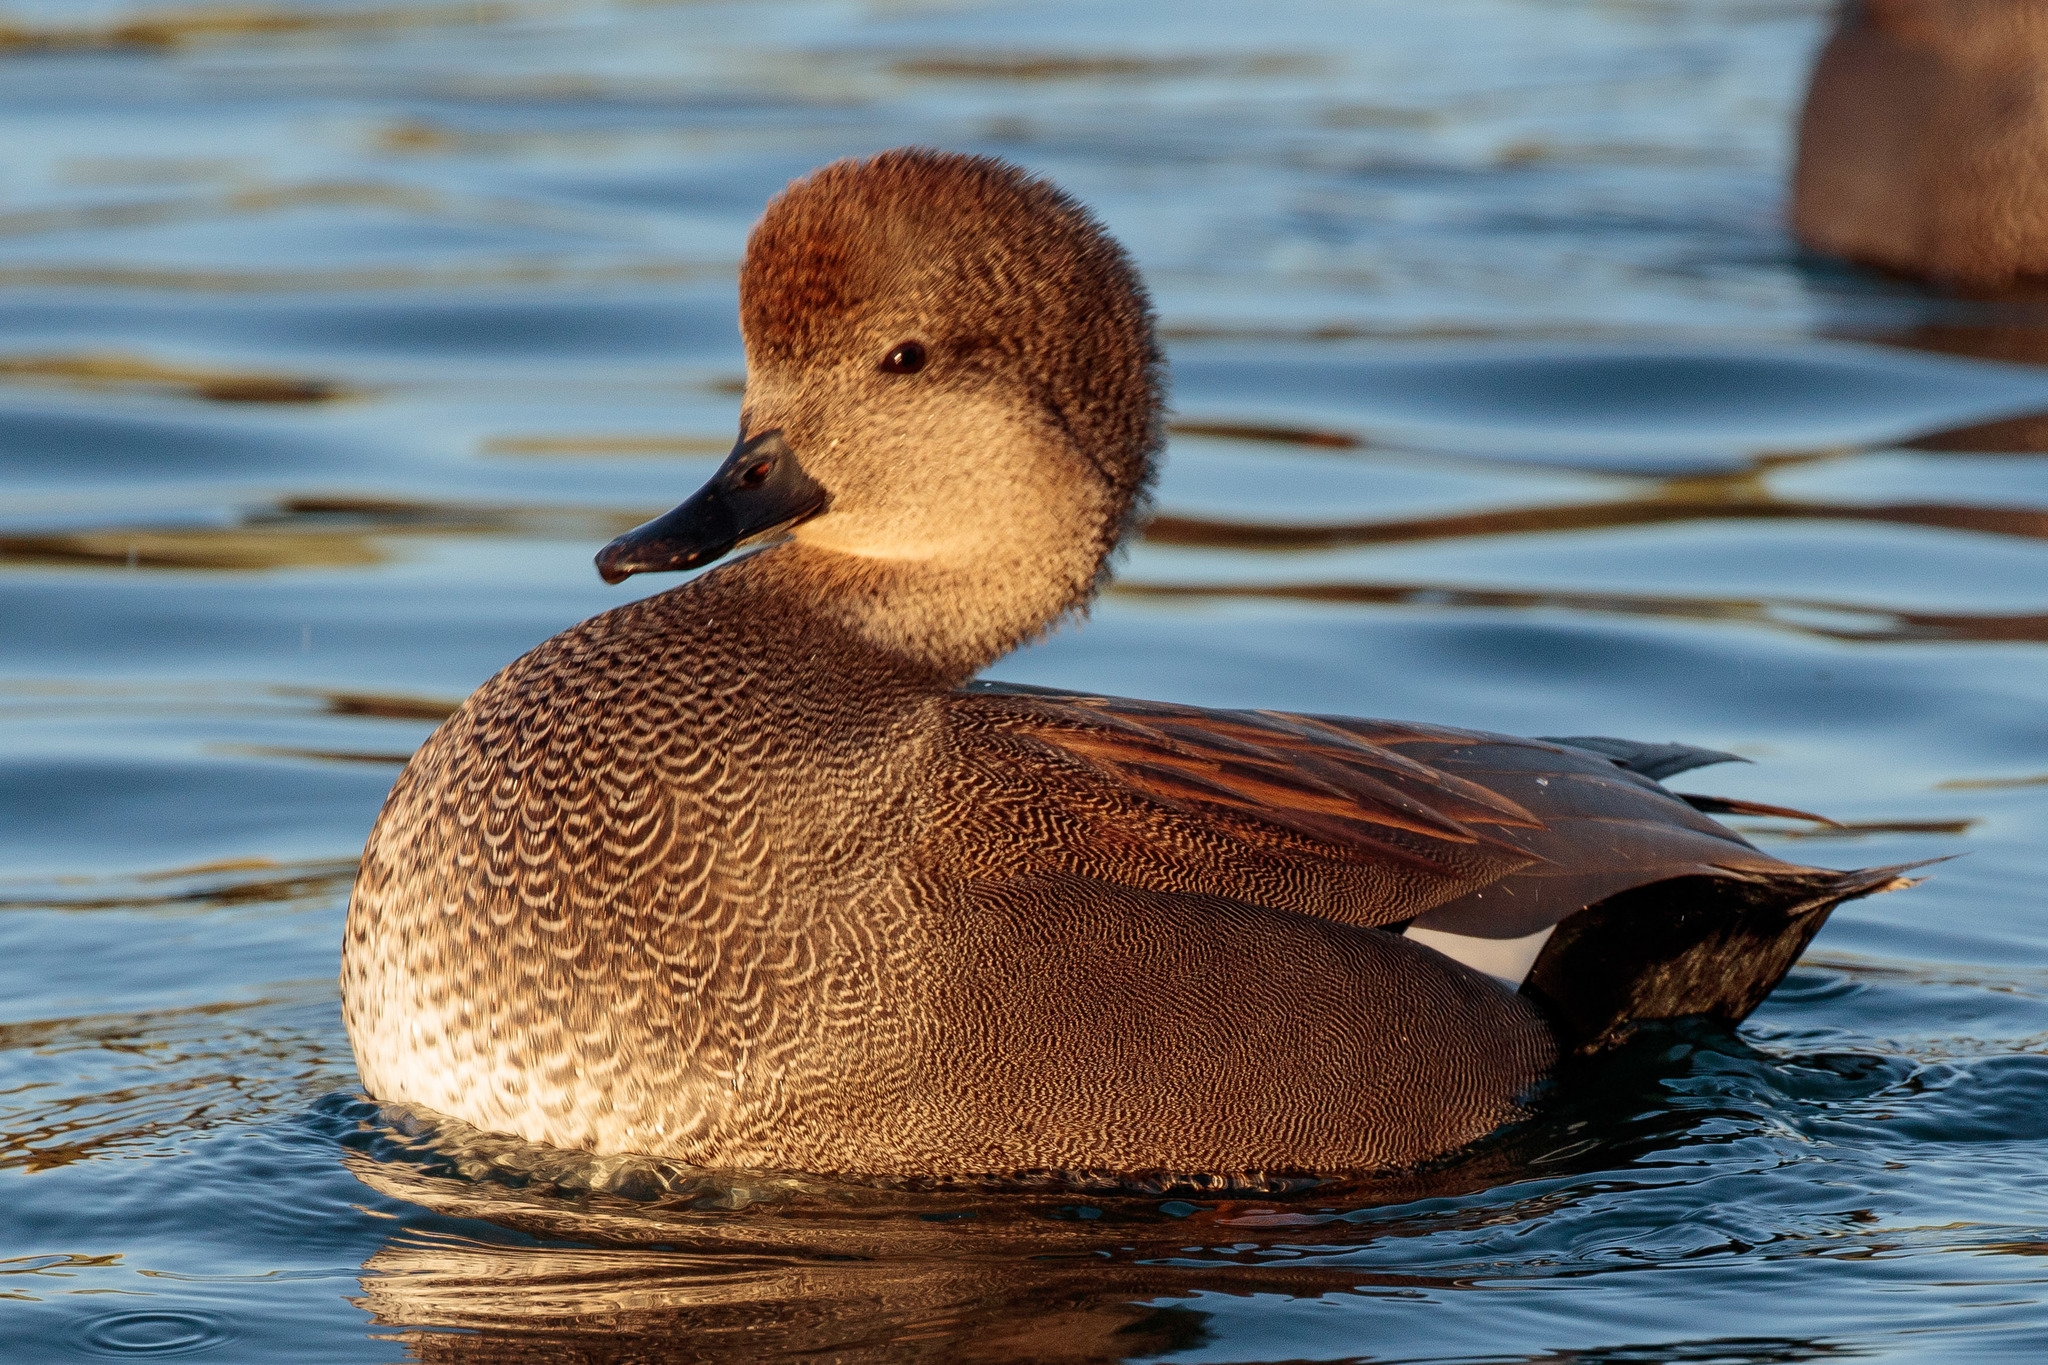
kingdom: Animalia
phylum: Chordata
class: Aves
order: Anseriformes
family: Anatidae
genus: Mareca
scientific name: Mareca strepera
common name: Gadwall
